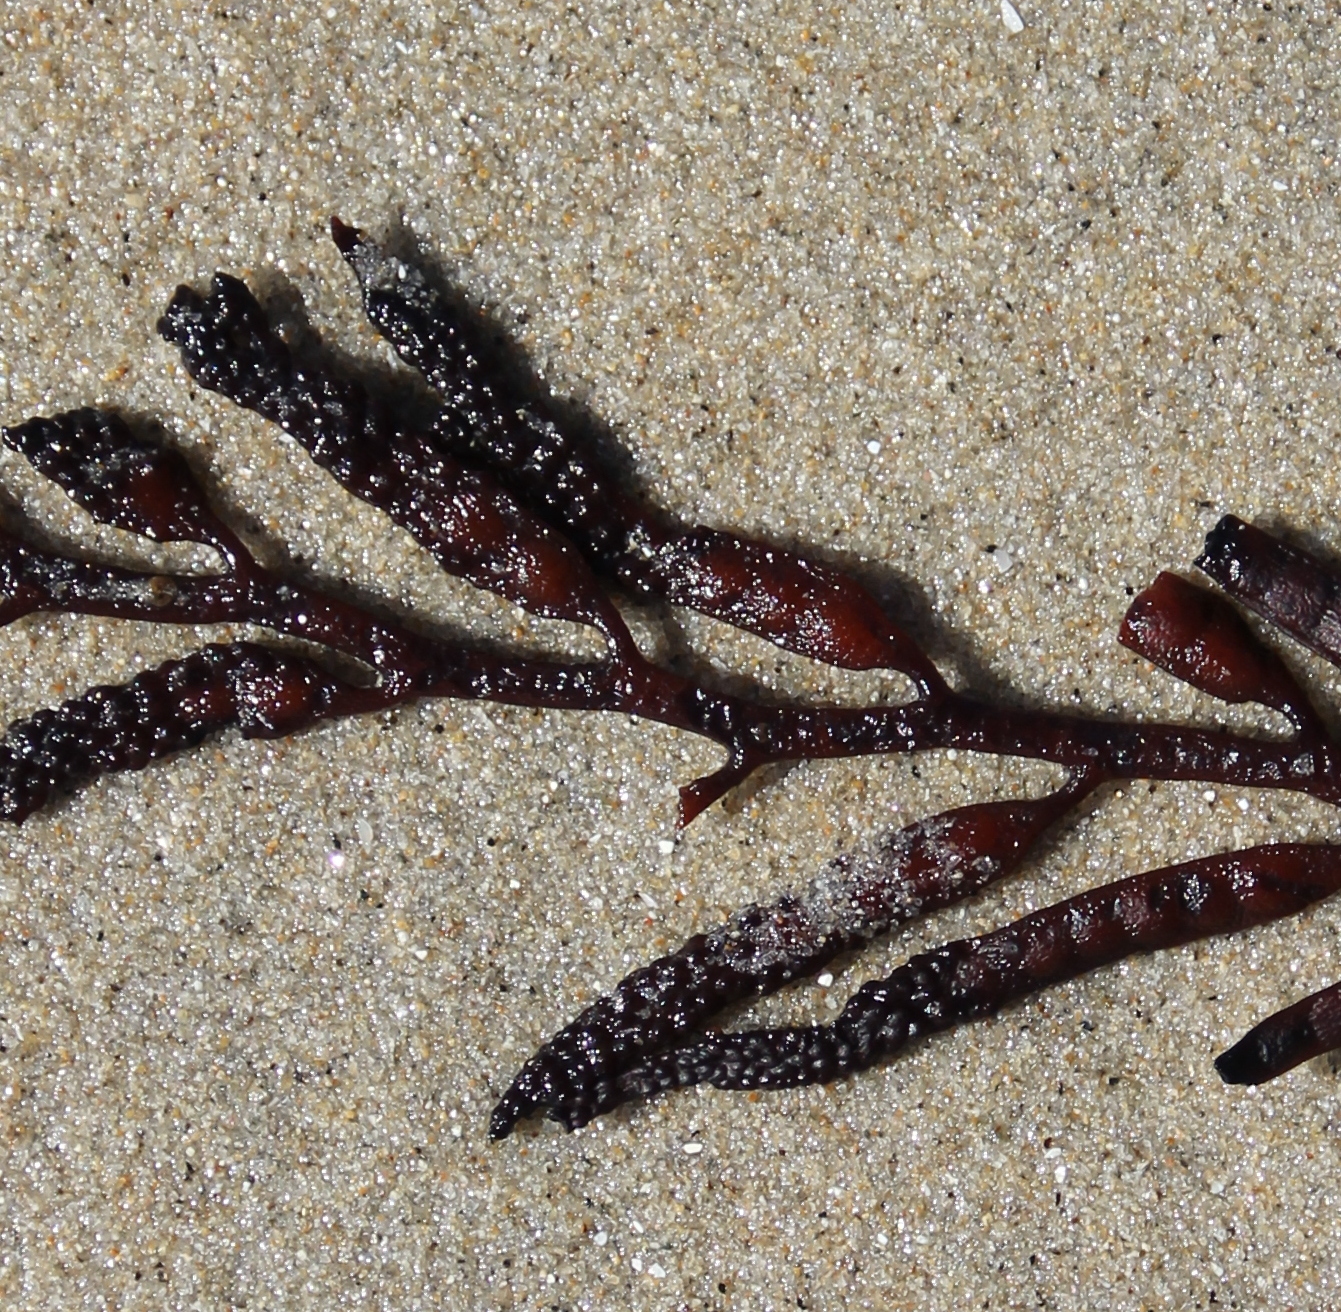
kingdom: Chromista
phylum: Ochrophyta
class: Phaeophyceae
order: Fucales
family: Sargassaceae
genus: Stephanocystis
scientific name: Stephanocystis
